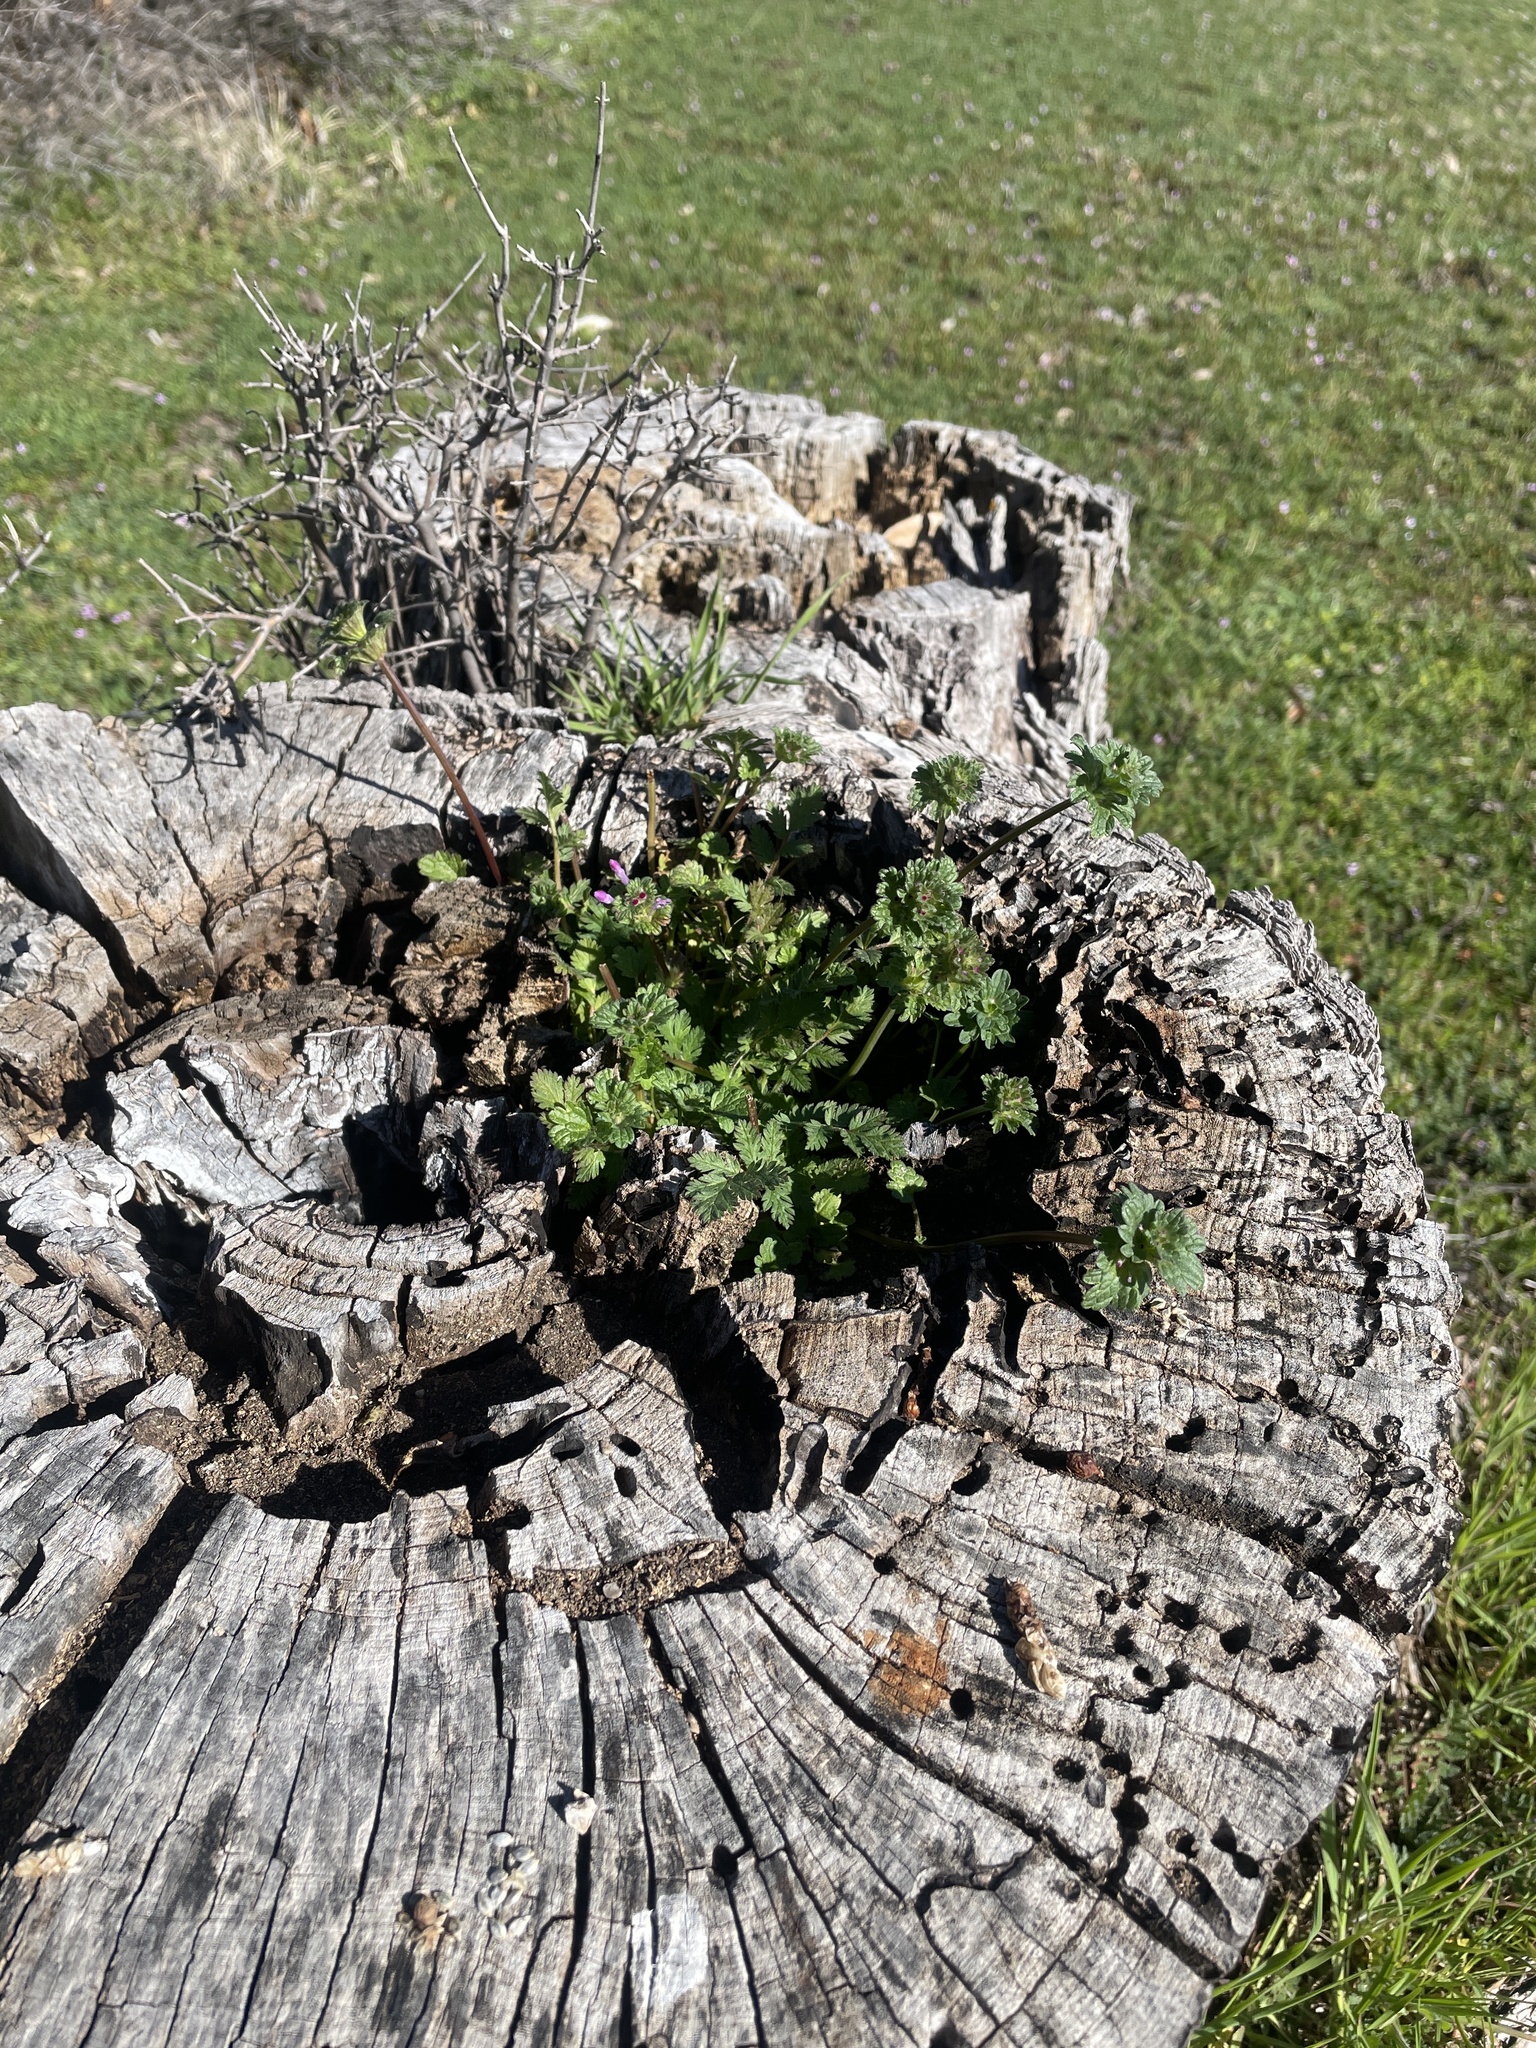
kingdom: Plantae
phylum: Tracheophyta
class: Magnoliopsida
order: Lamiales
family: Lamiaceae
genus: Lamium
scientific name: Lamium amplexicaule
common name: Henbit dead-nettle
